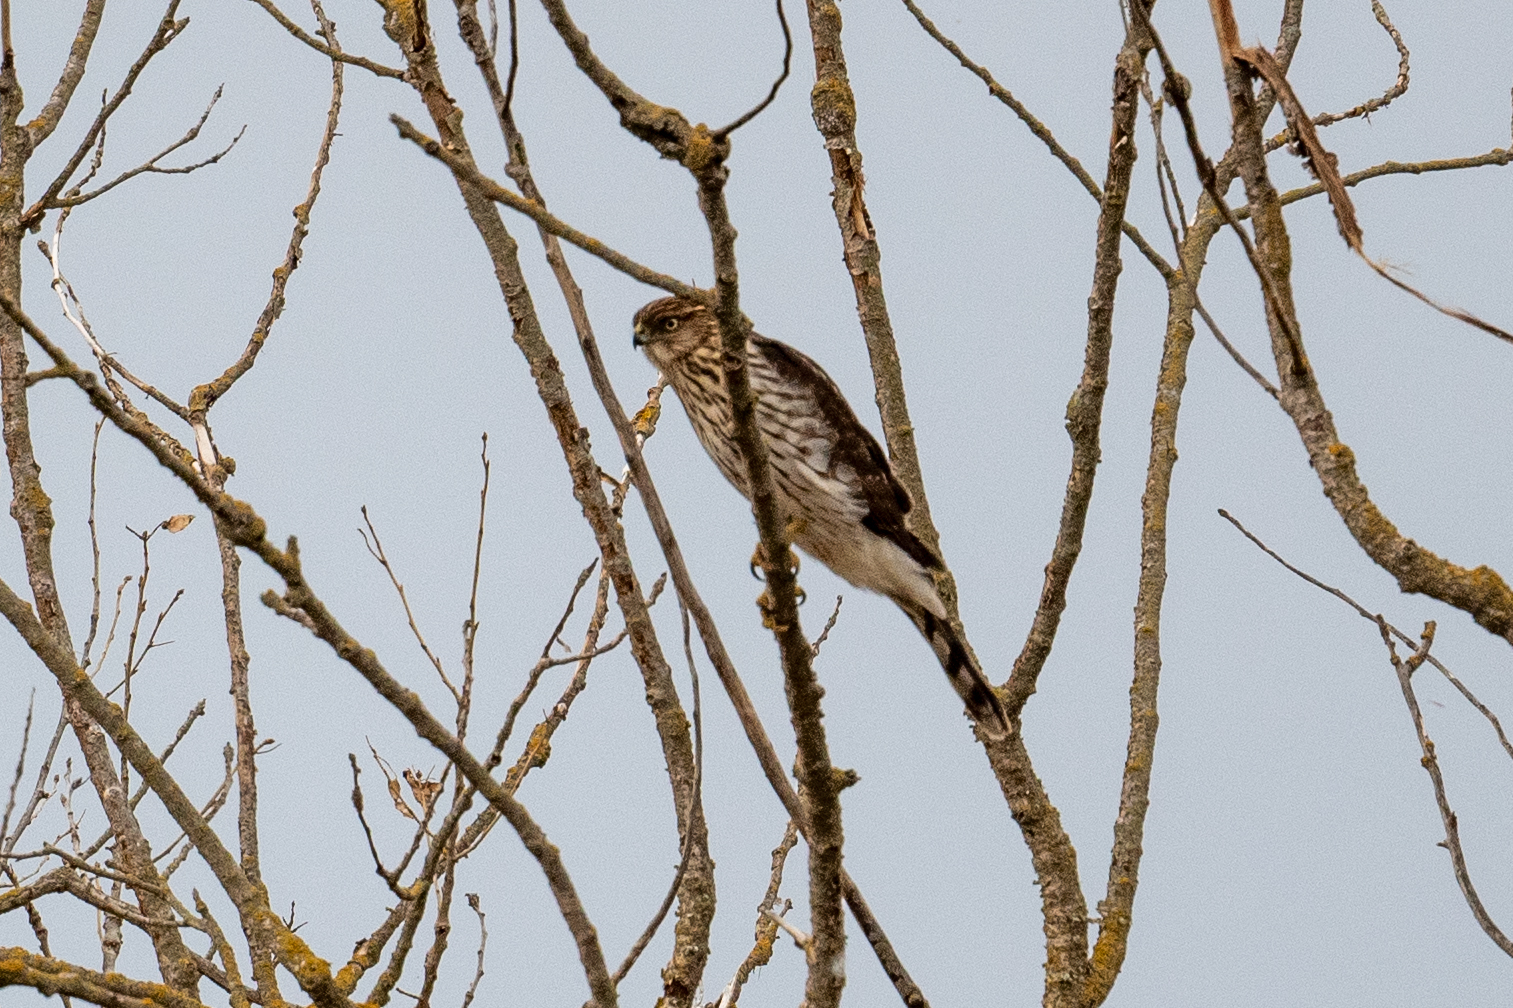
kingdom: Animalia
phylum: Chordata
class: Aves
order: Accipitriformes
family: Accipitridae
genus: Accipiter
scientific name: Accipiter cooperii
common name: Cooper's hawk
